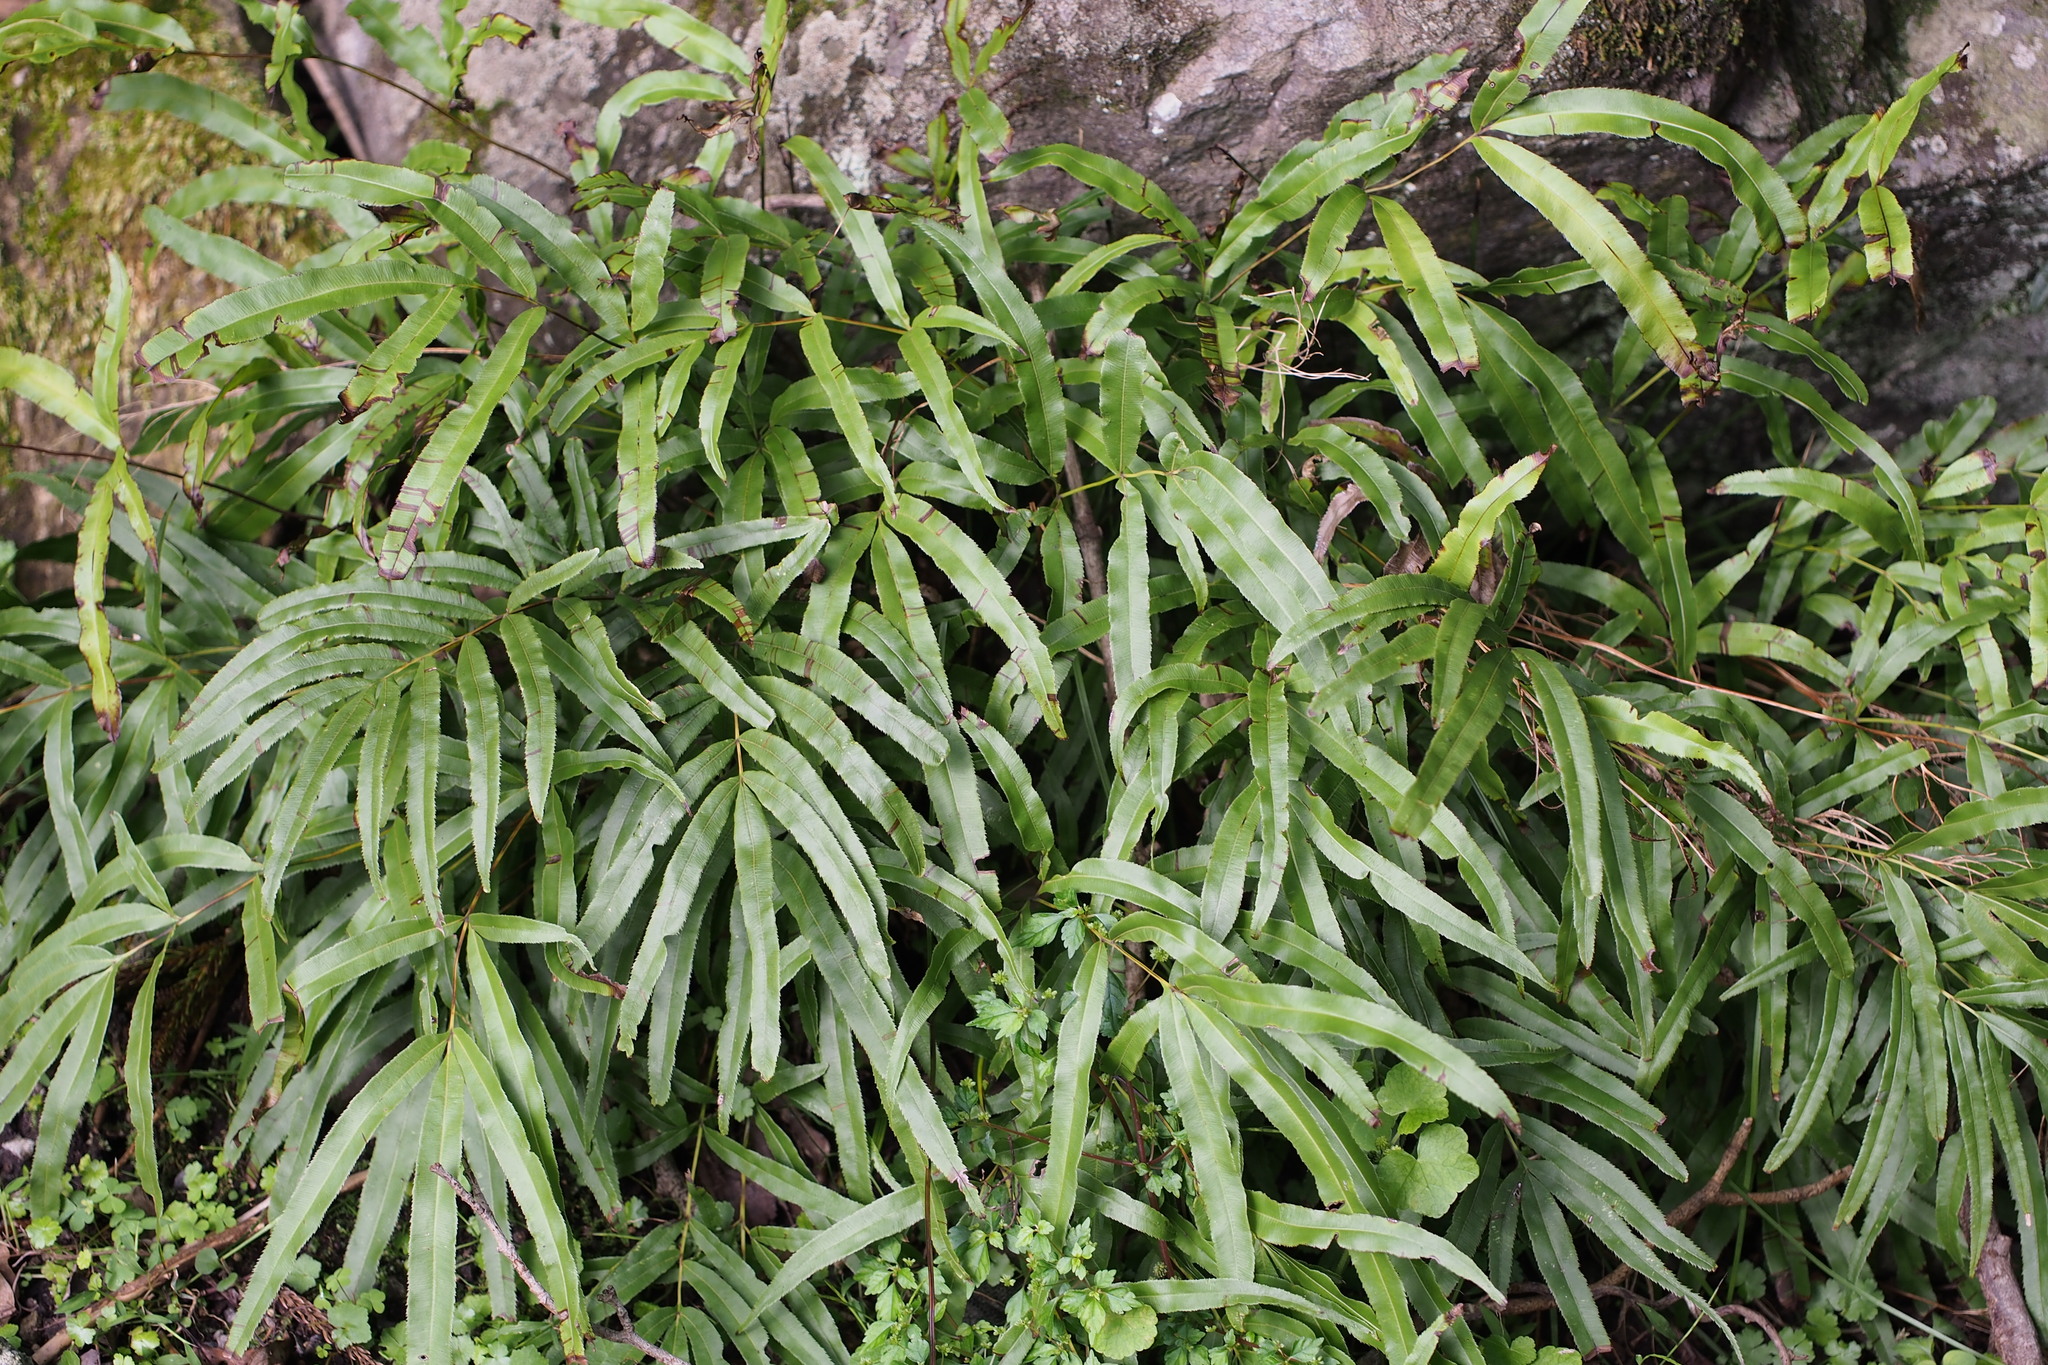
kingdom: Plantae
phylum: Tracheophyta
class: Polypodiopsida
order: Polypodiales
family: Pteridaceae
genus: Pteris
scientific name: Pteris cretica
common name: Ribbon fern
